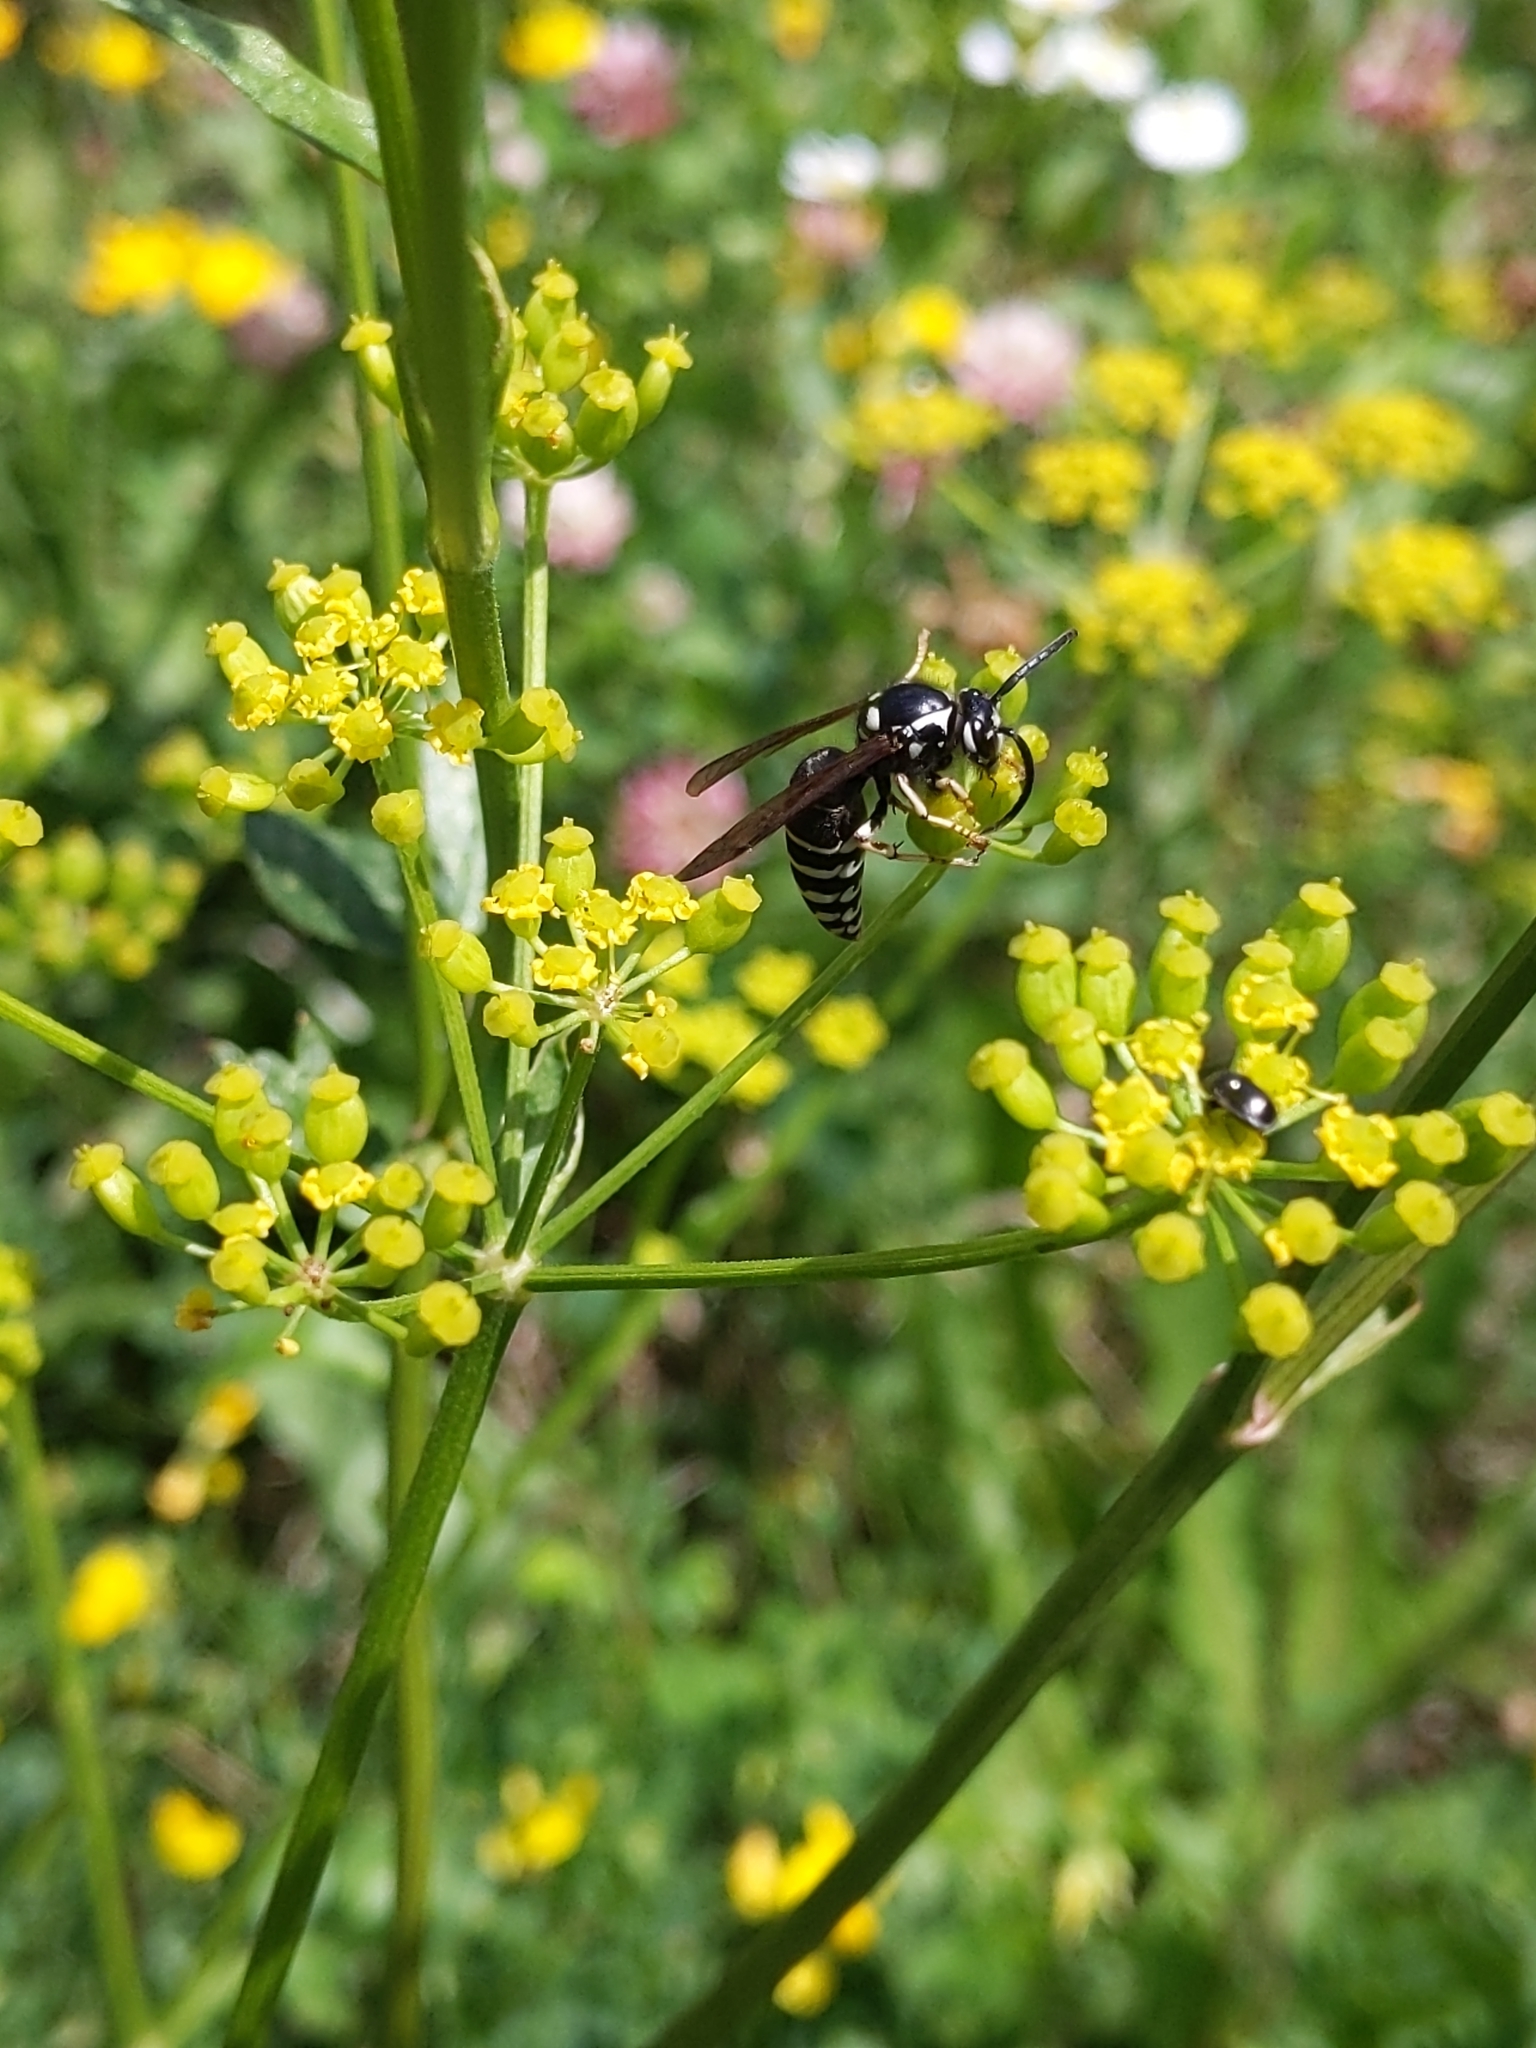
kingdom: Animalia
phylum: Arthropoda
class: Insecta
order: Hymenoptera
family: Vespidae
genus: Dolichovespula
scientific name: Dolichovespula adulterina
